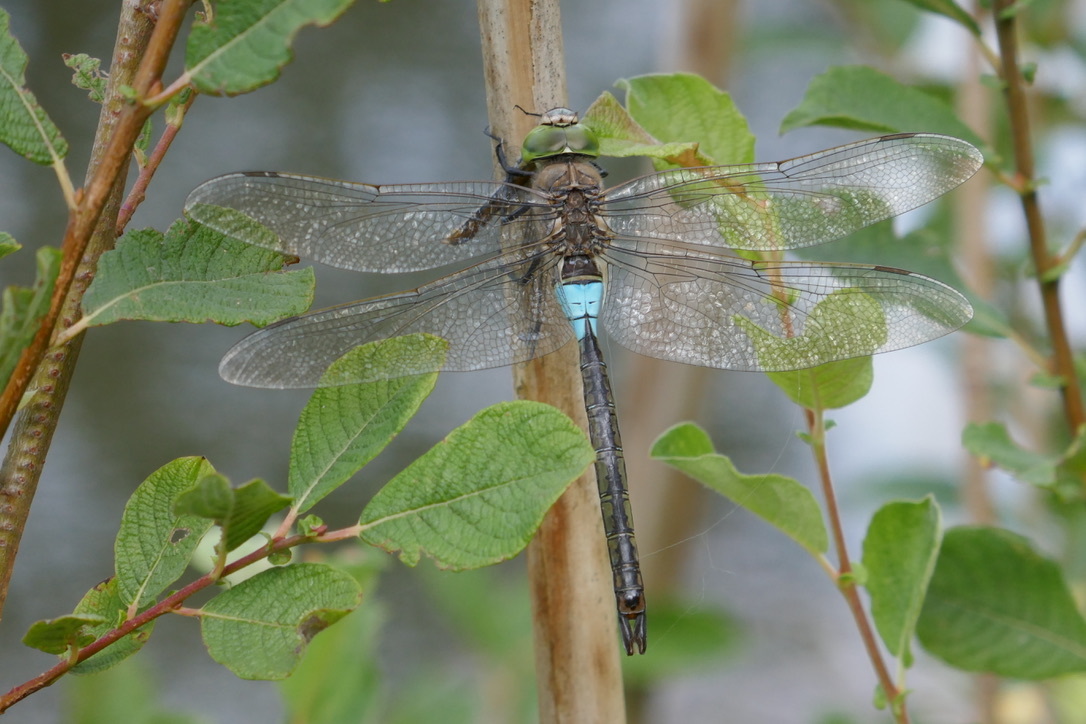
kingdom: Animalia
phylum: Arthropoda
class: Insecta
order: Odonata
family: Aeshnidae
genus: Anax
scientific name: Anax parthenope
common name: Lesser emperor
